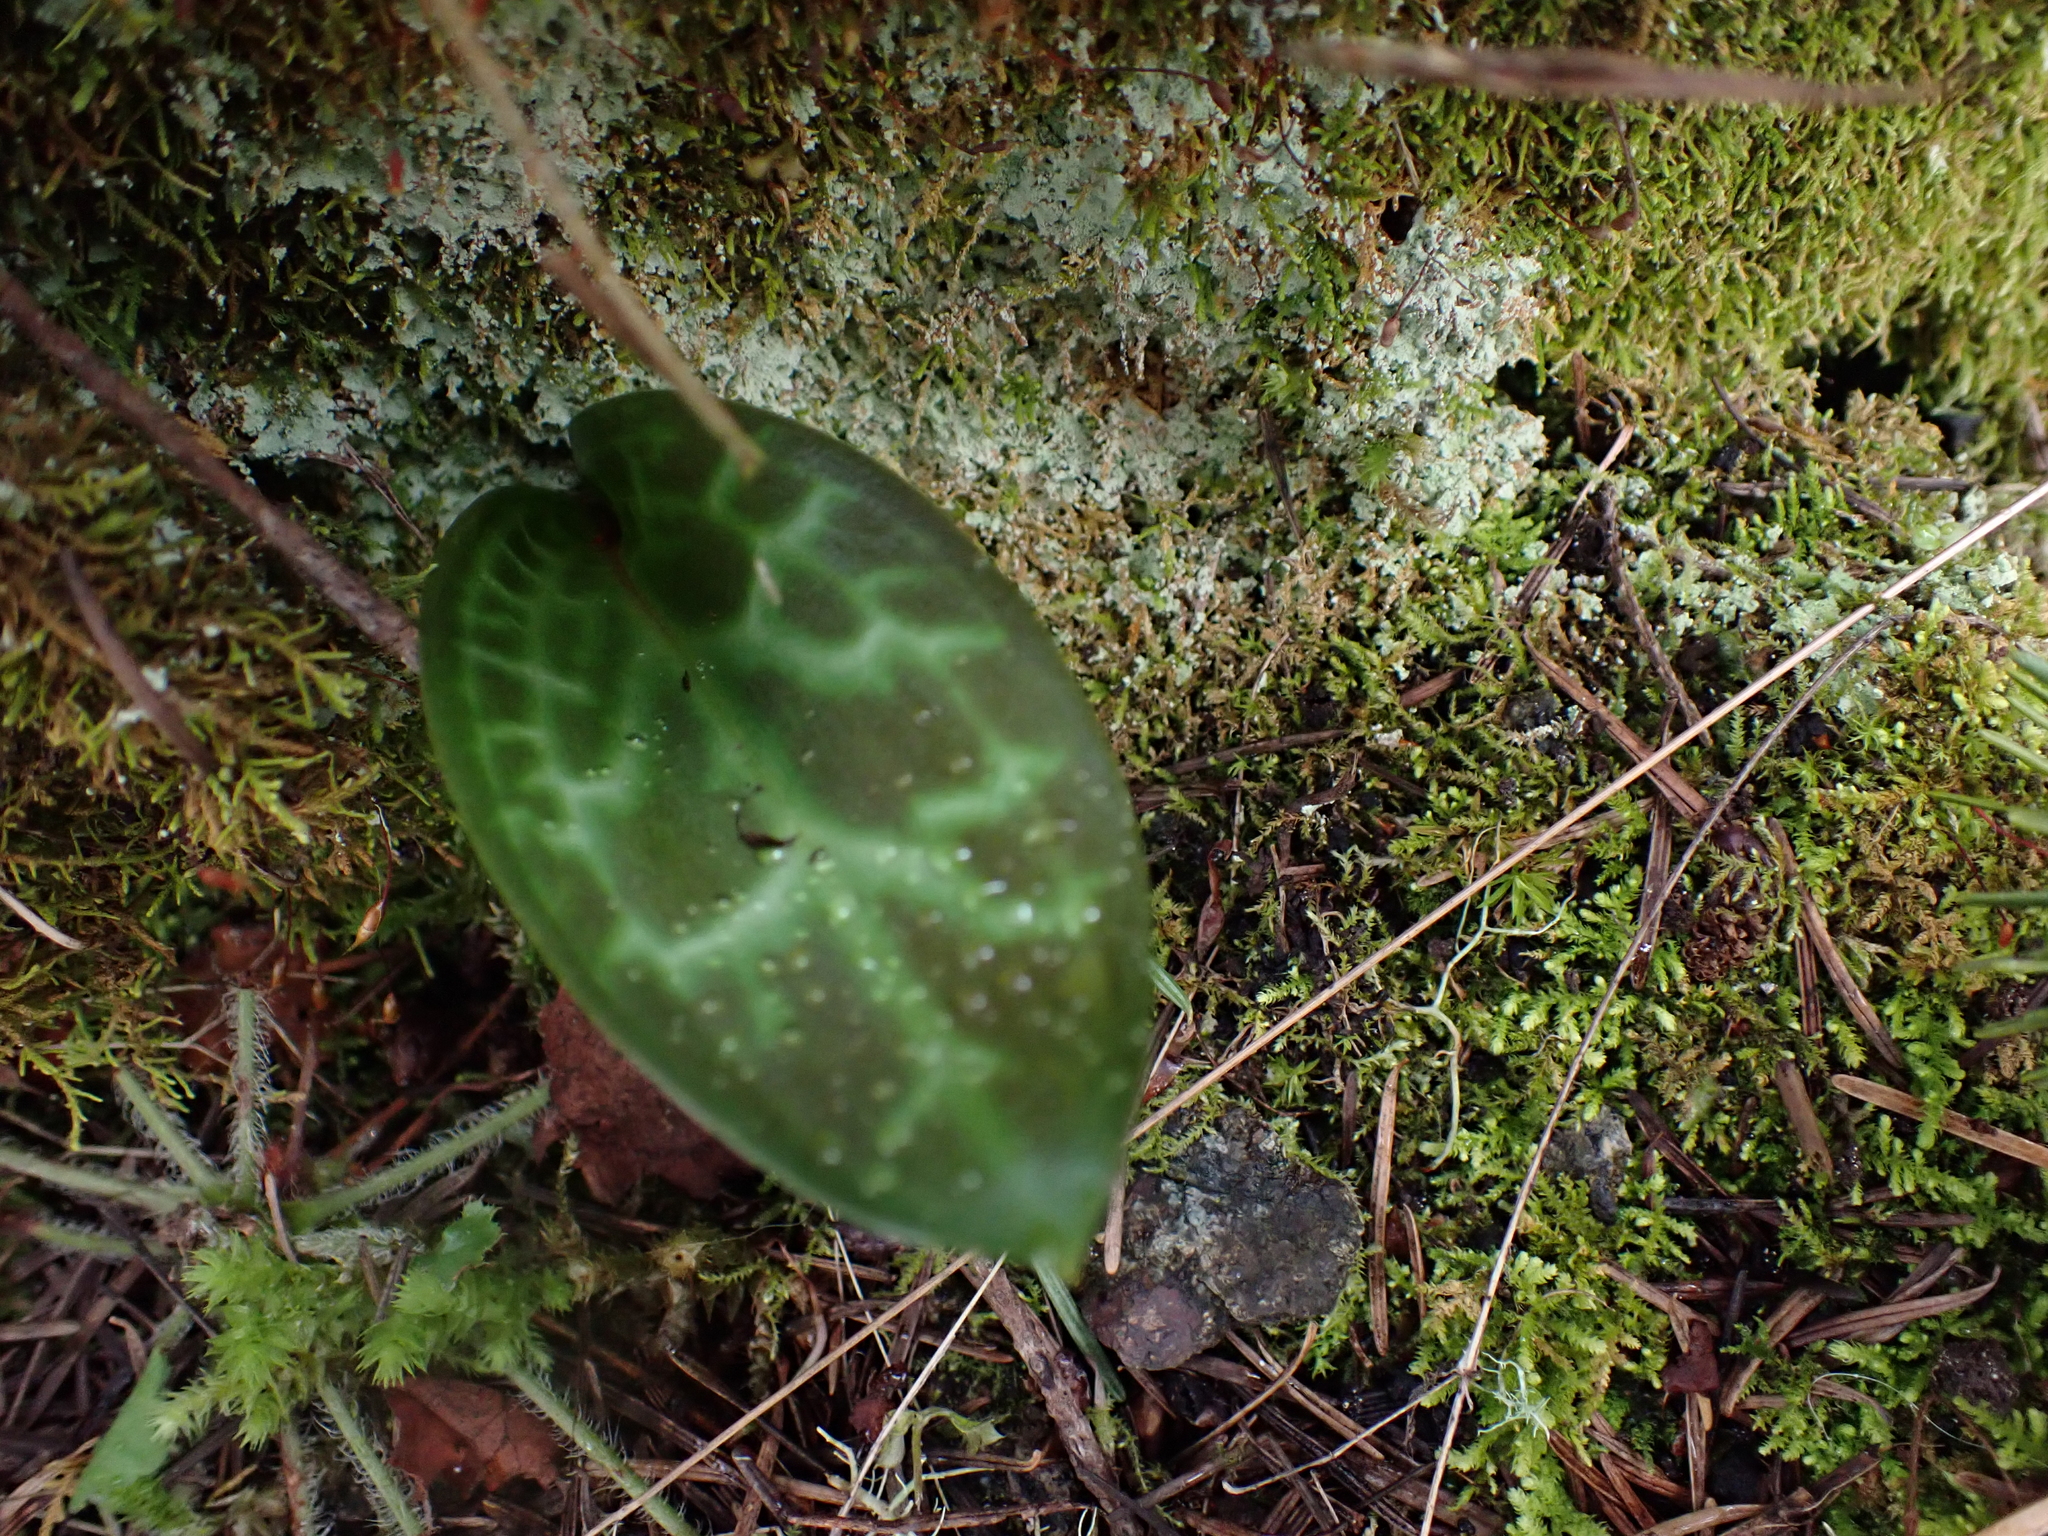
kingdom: Plantae
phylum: Tracheophyta
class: Liliopsida
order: Liliales
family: Liliaceae
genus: Erythronium
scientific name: Erythronium oregonum
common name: Giant adder's-tongue
